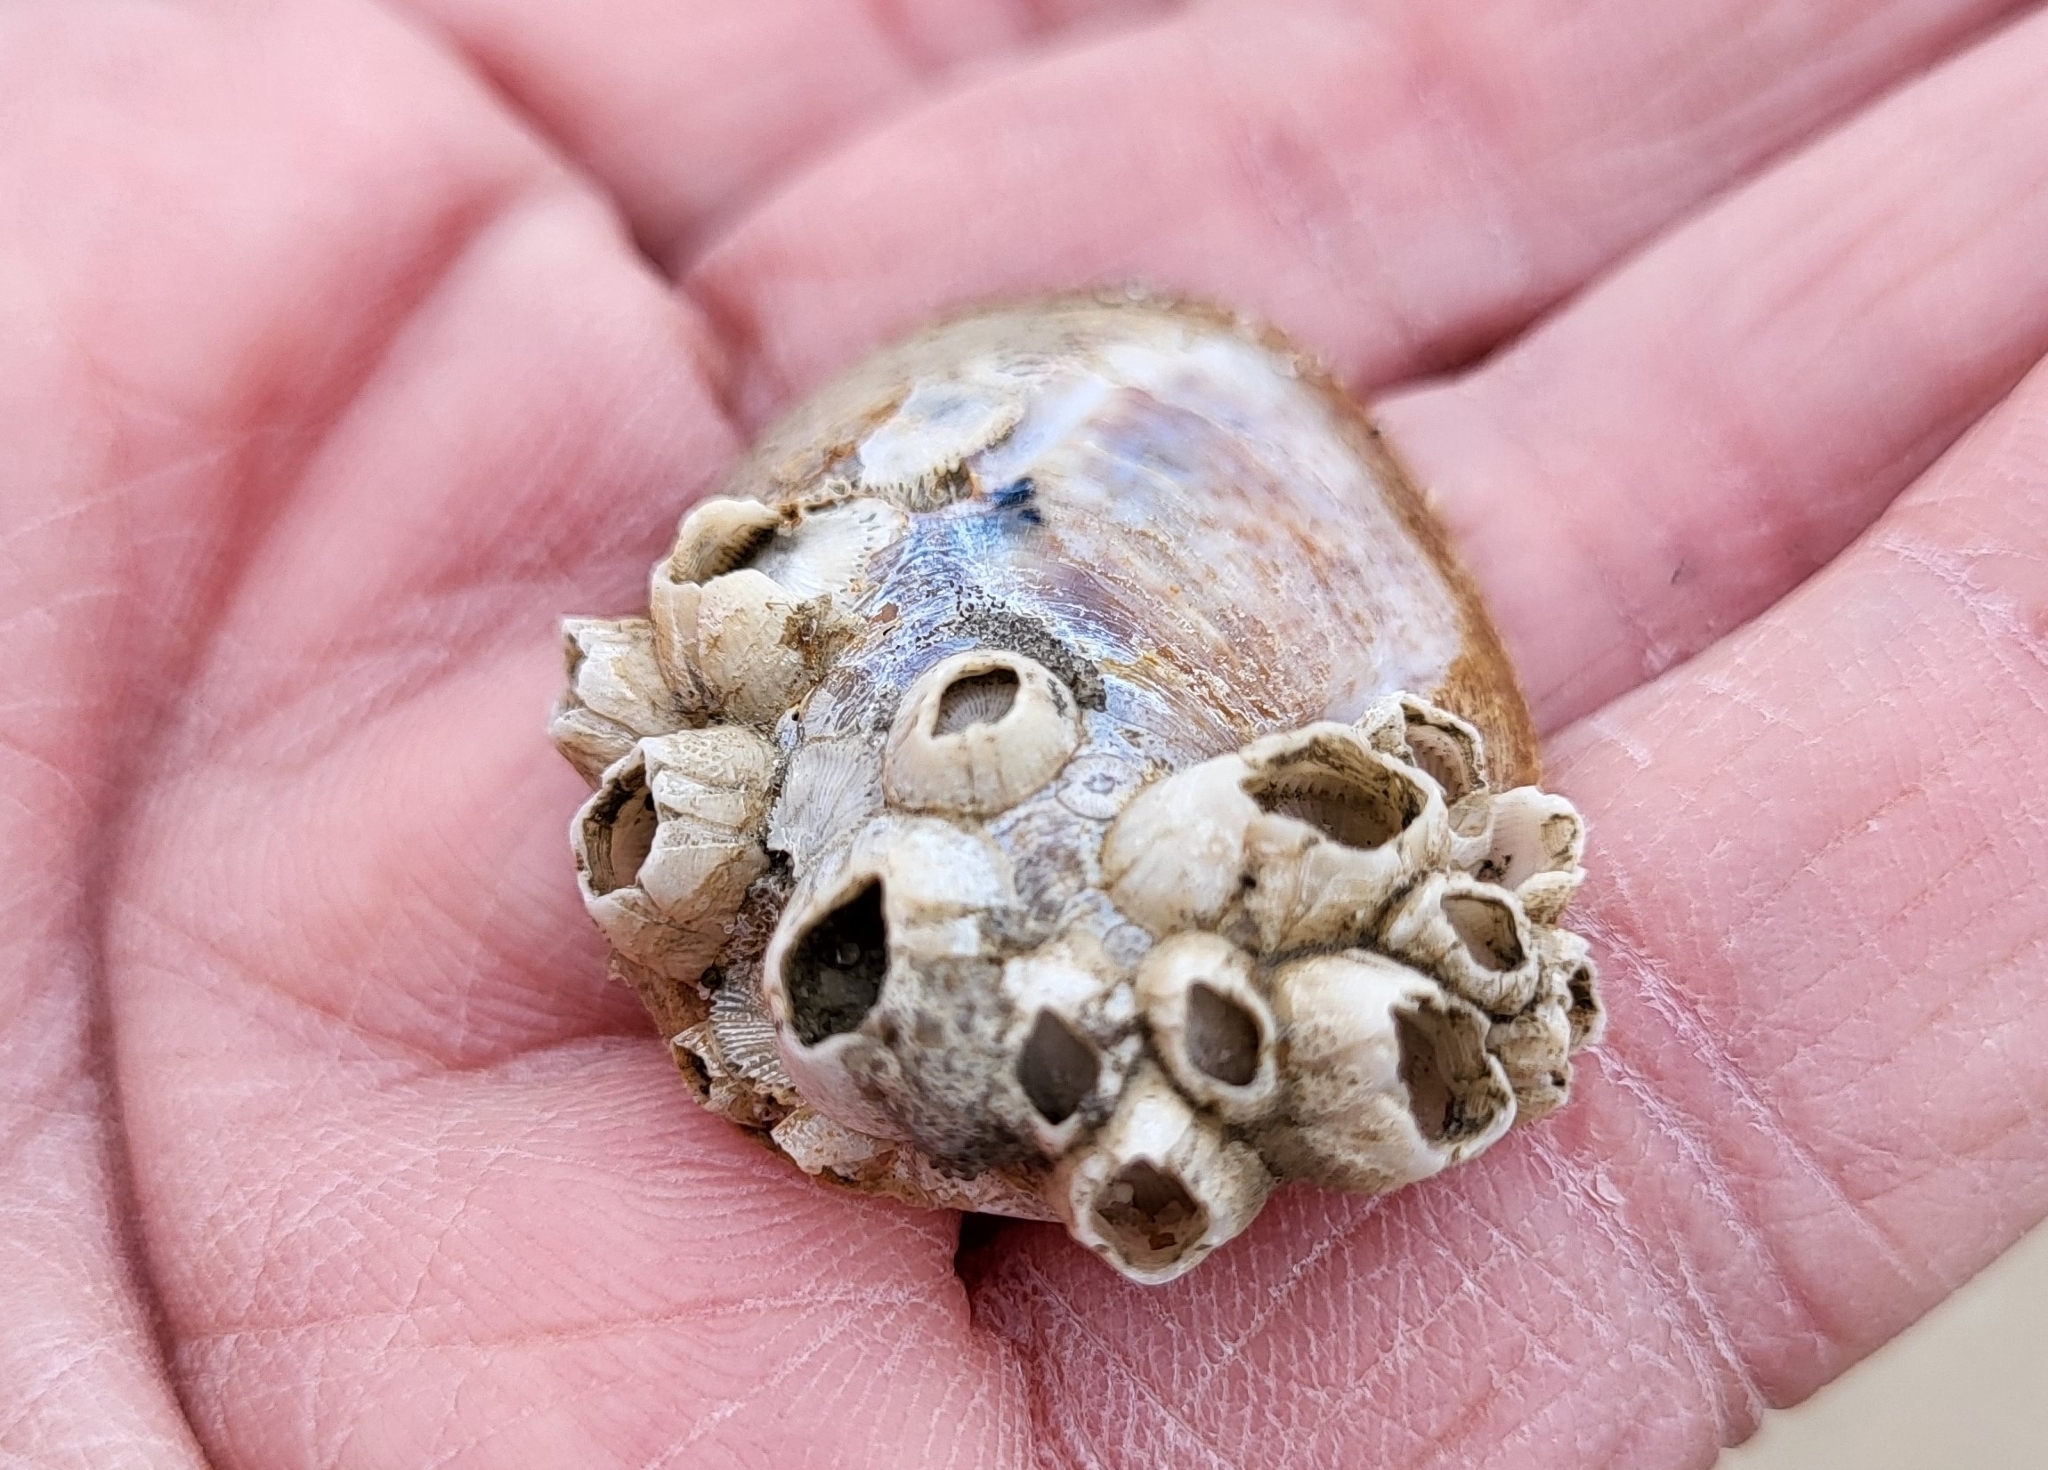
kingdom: Animalia
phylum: Arthropoda
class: Maxillopoda
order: Sessilia
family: Balanidae
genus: Amphibalanus
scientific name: Amphibalanus improvisus
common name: Bay barnacle
